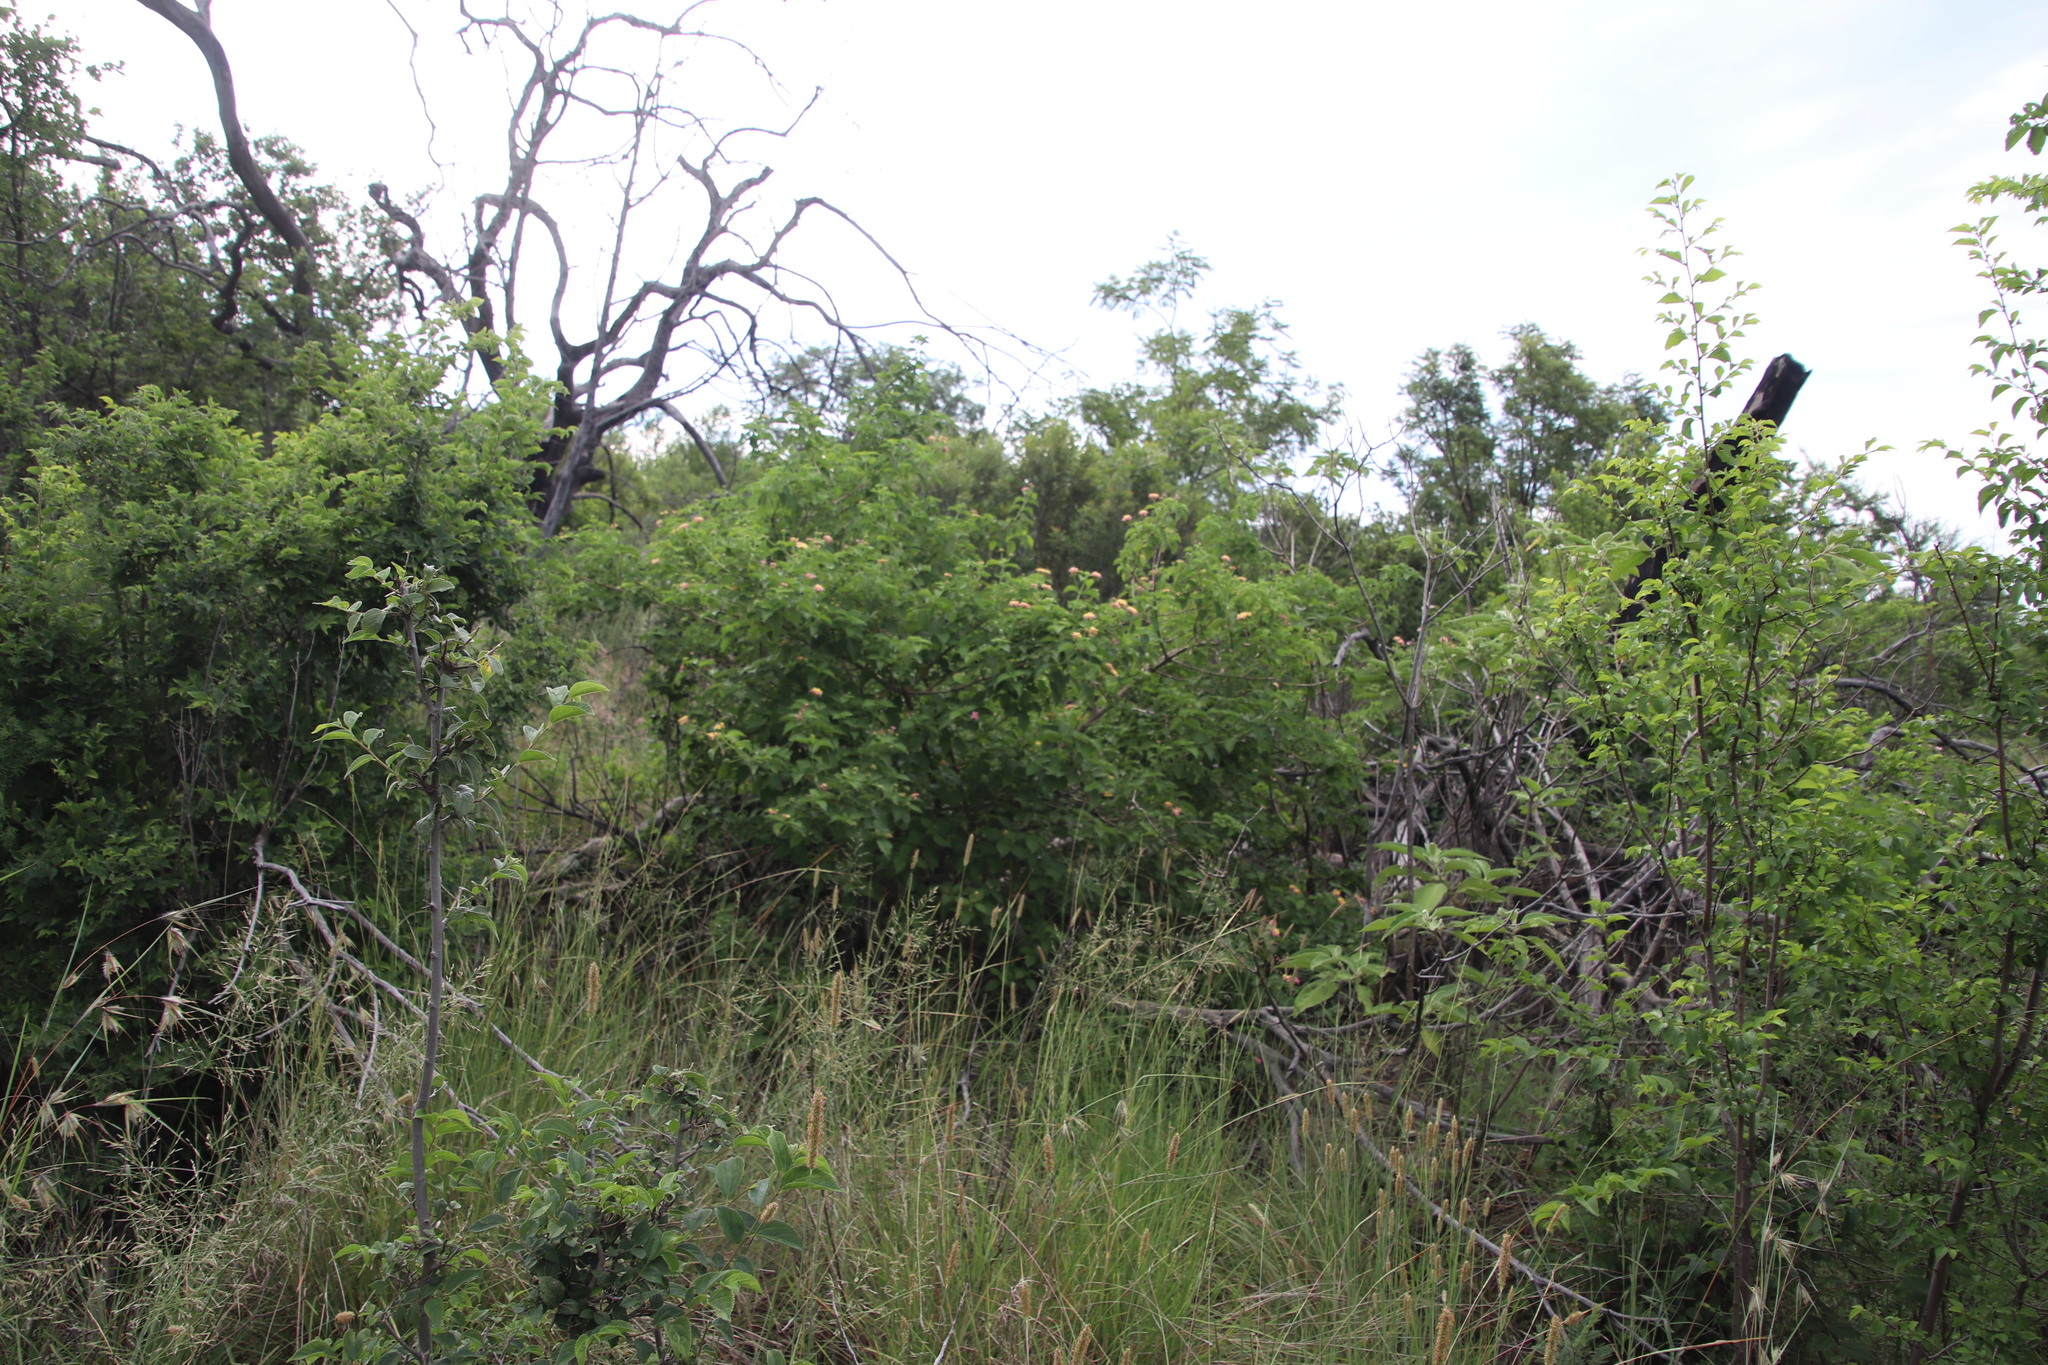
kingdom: Plantae
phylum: Tracheophyta
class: Magnoliopsida
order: Lamiales
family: Verbenaceae
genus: Lantana
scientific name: Lantana camara
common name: Lantana
